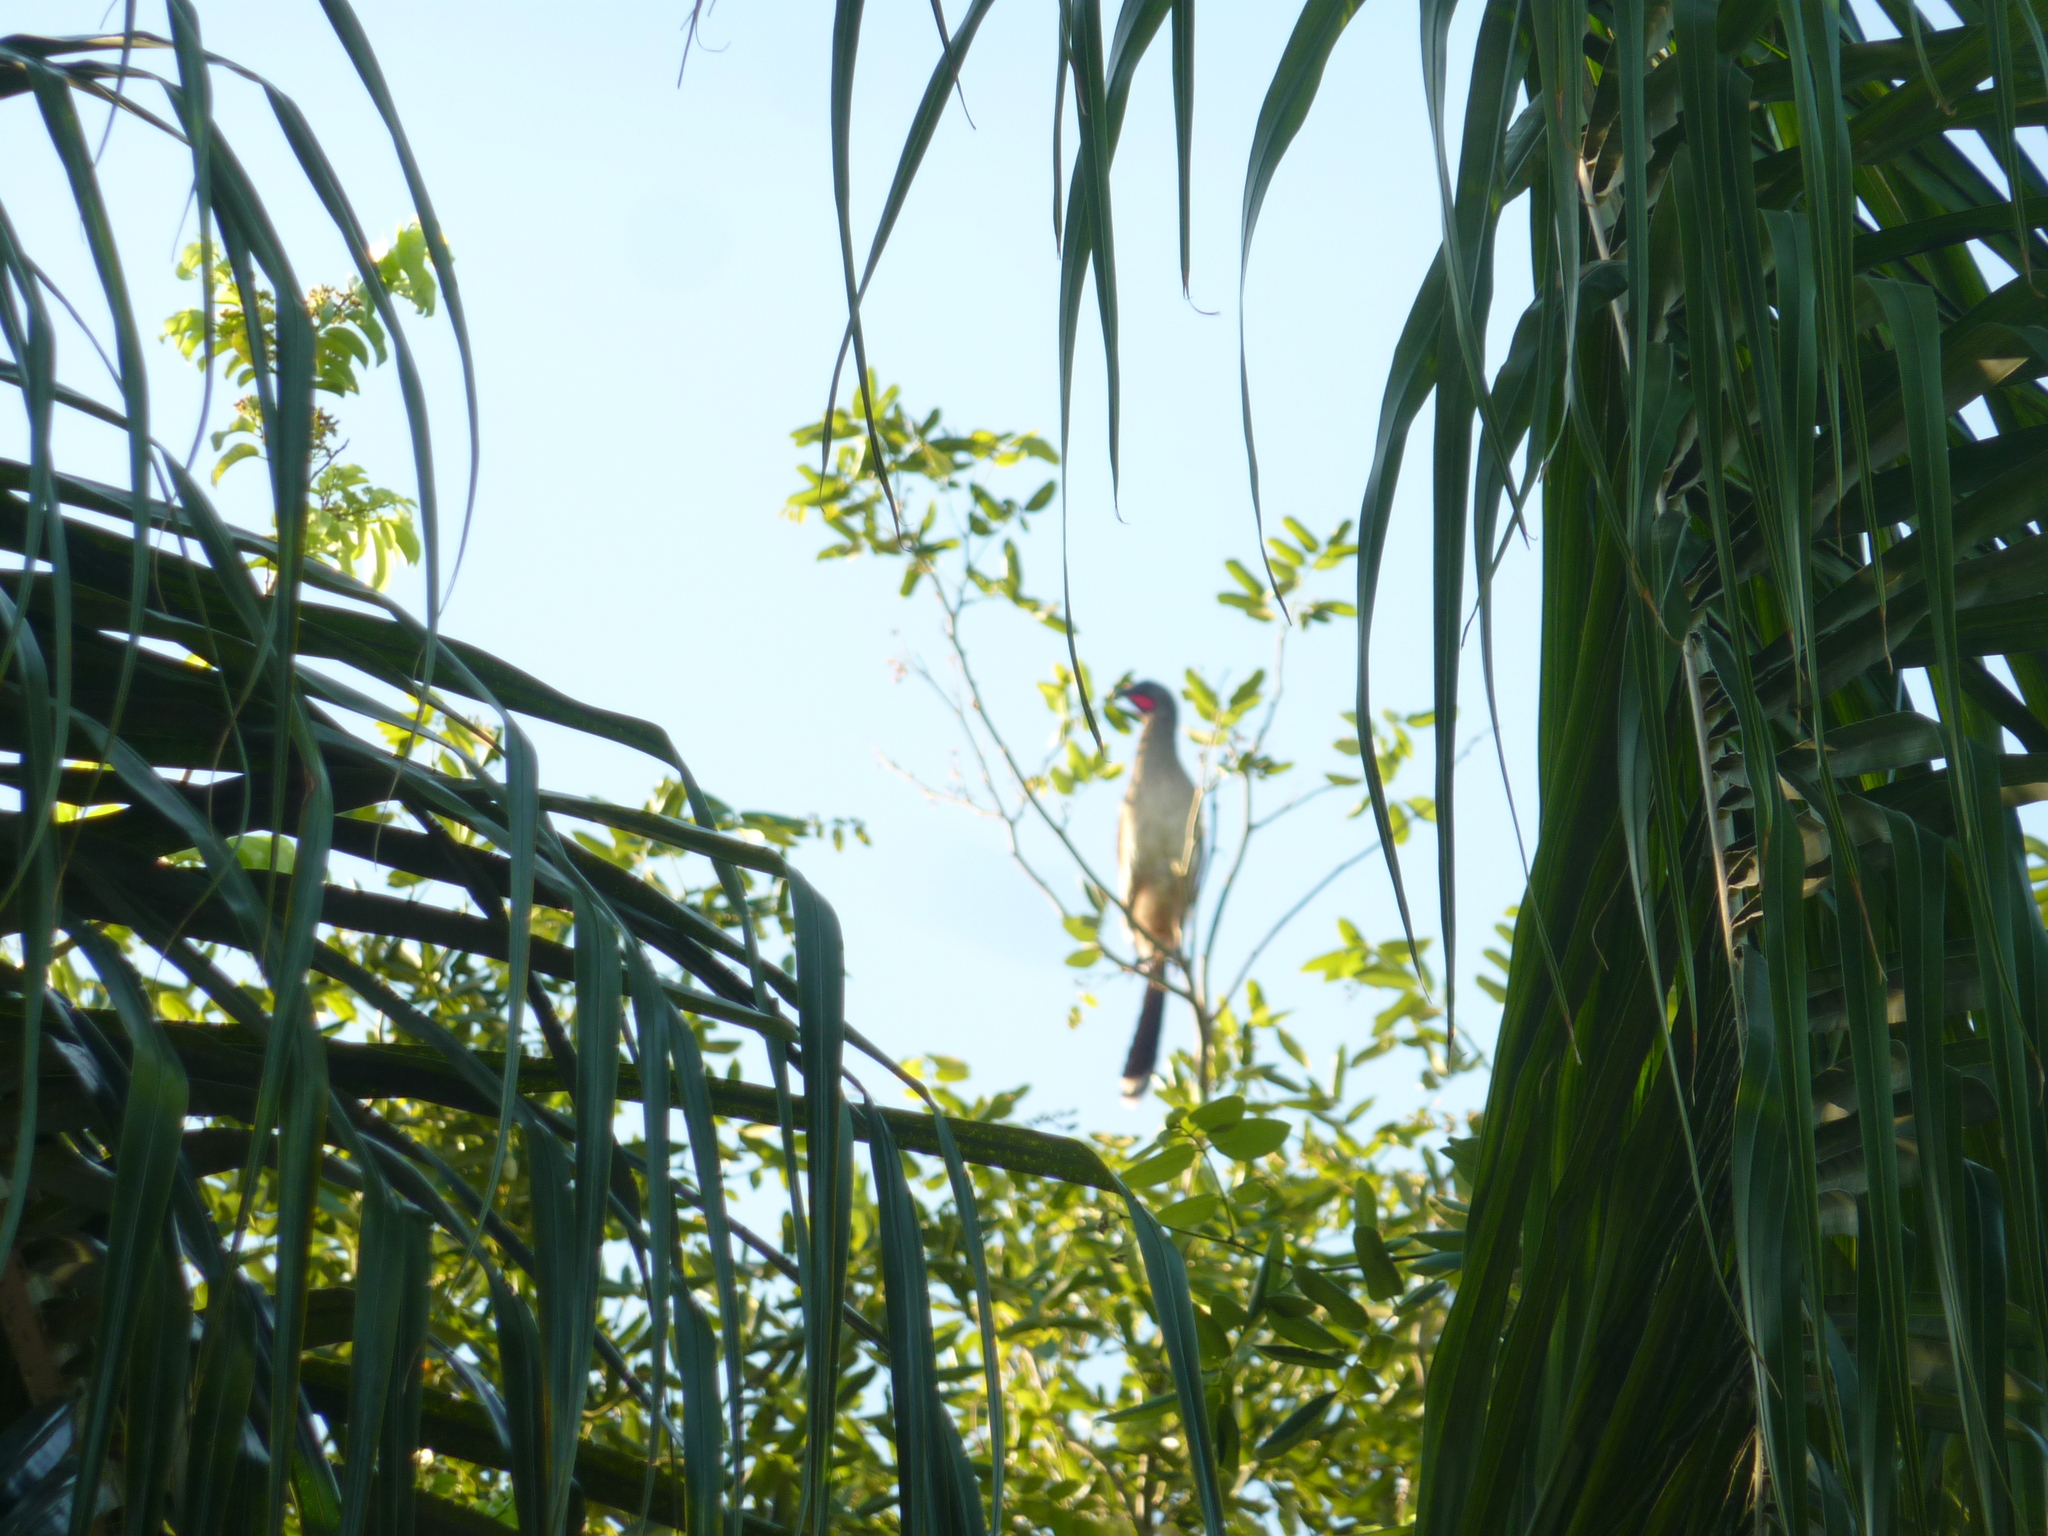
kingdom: Animalia
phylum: Chordata
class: Aves
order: Galliformes
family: Cracidae
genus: Ortalis
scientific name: Ortalis vetula
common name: Plain chachalaca
